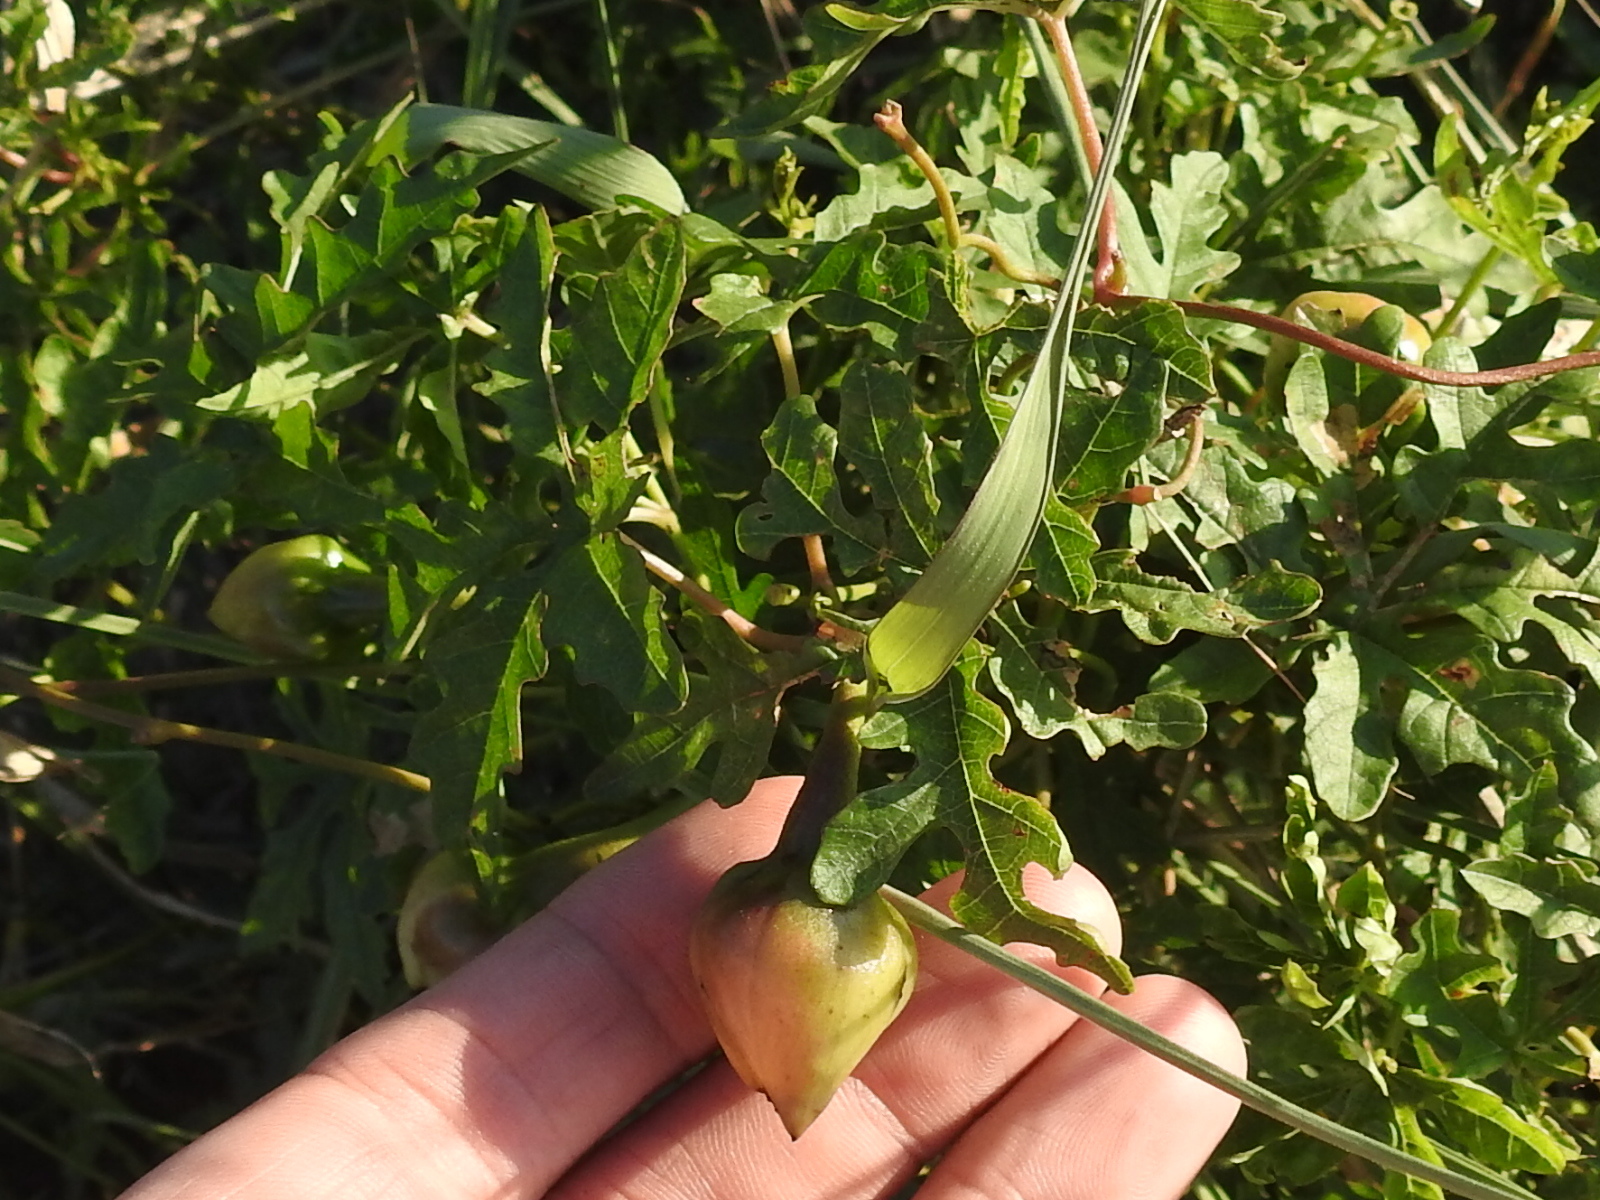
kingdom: Plantae
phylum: Tracheophyta
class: Magnoliopsida
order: Solanales
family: Convolvulaceae
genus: Distimake
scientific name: Distimake dissectus
